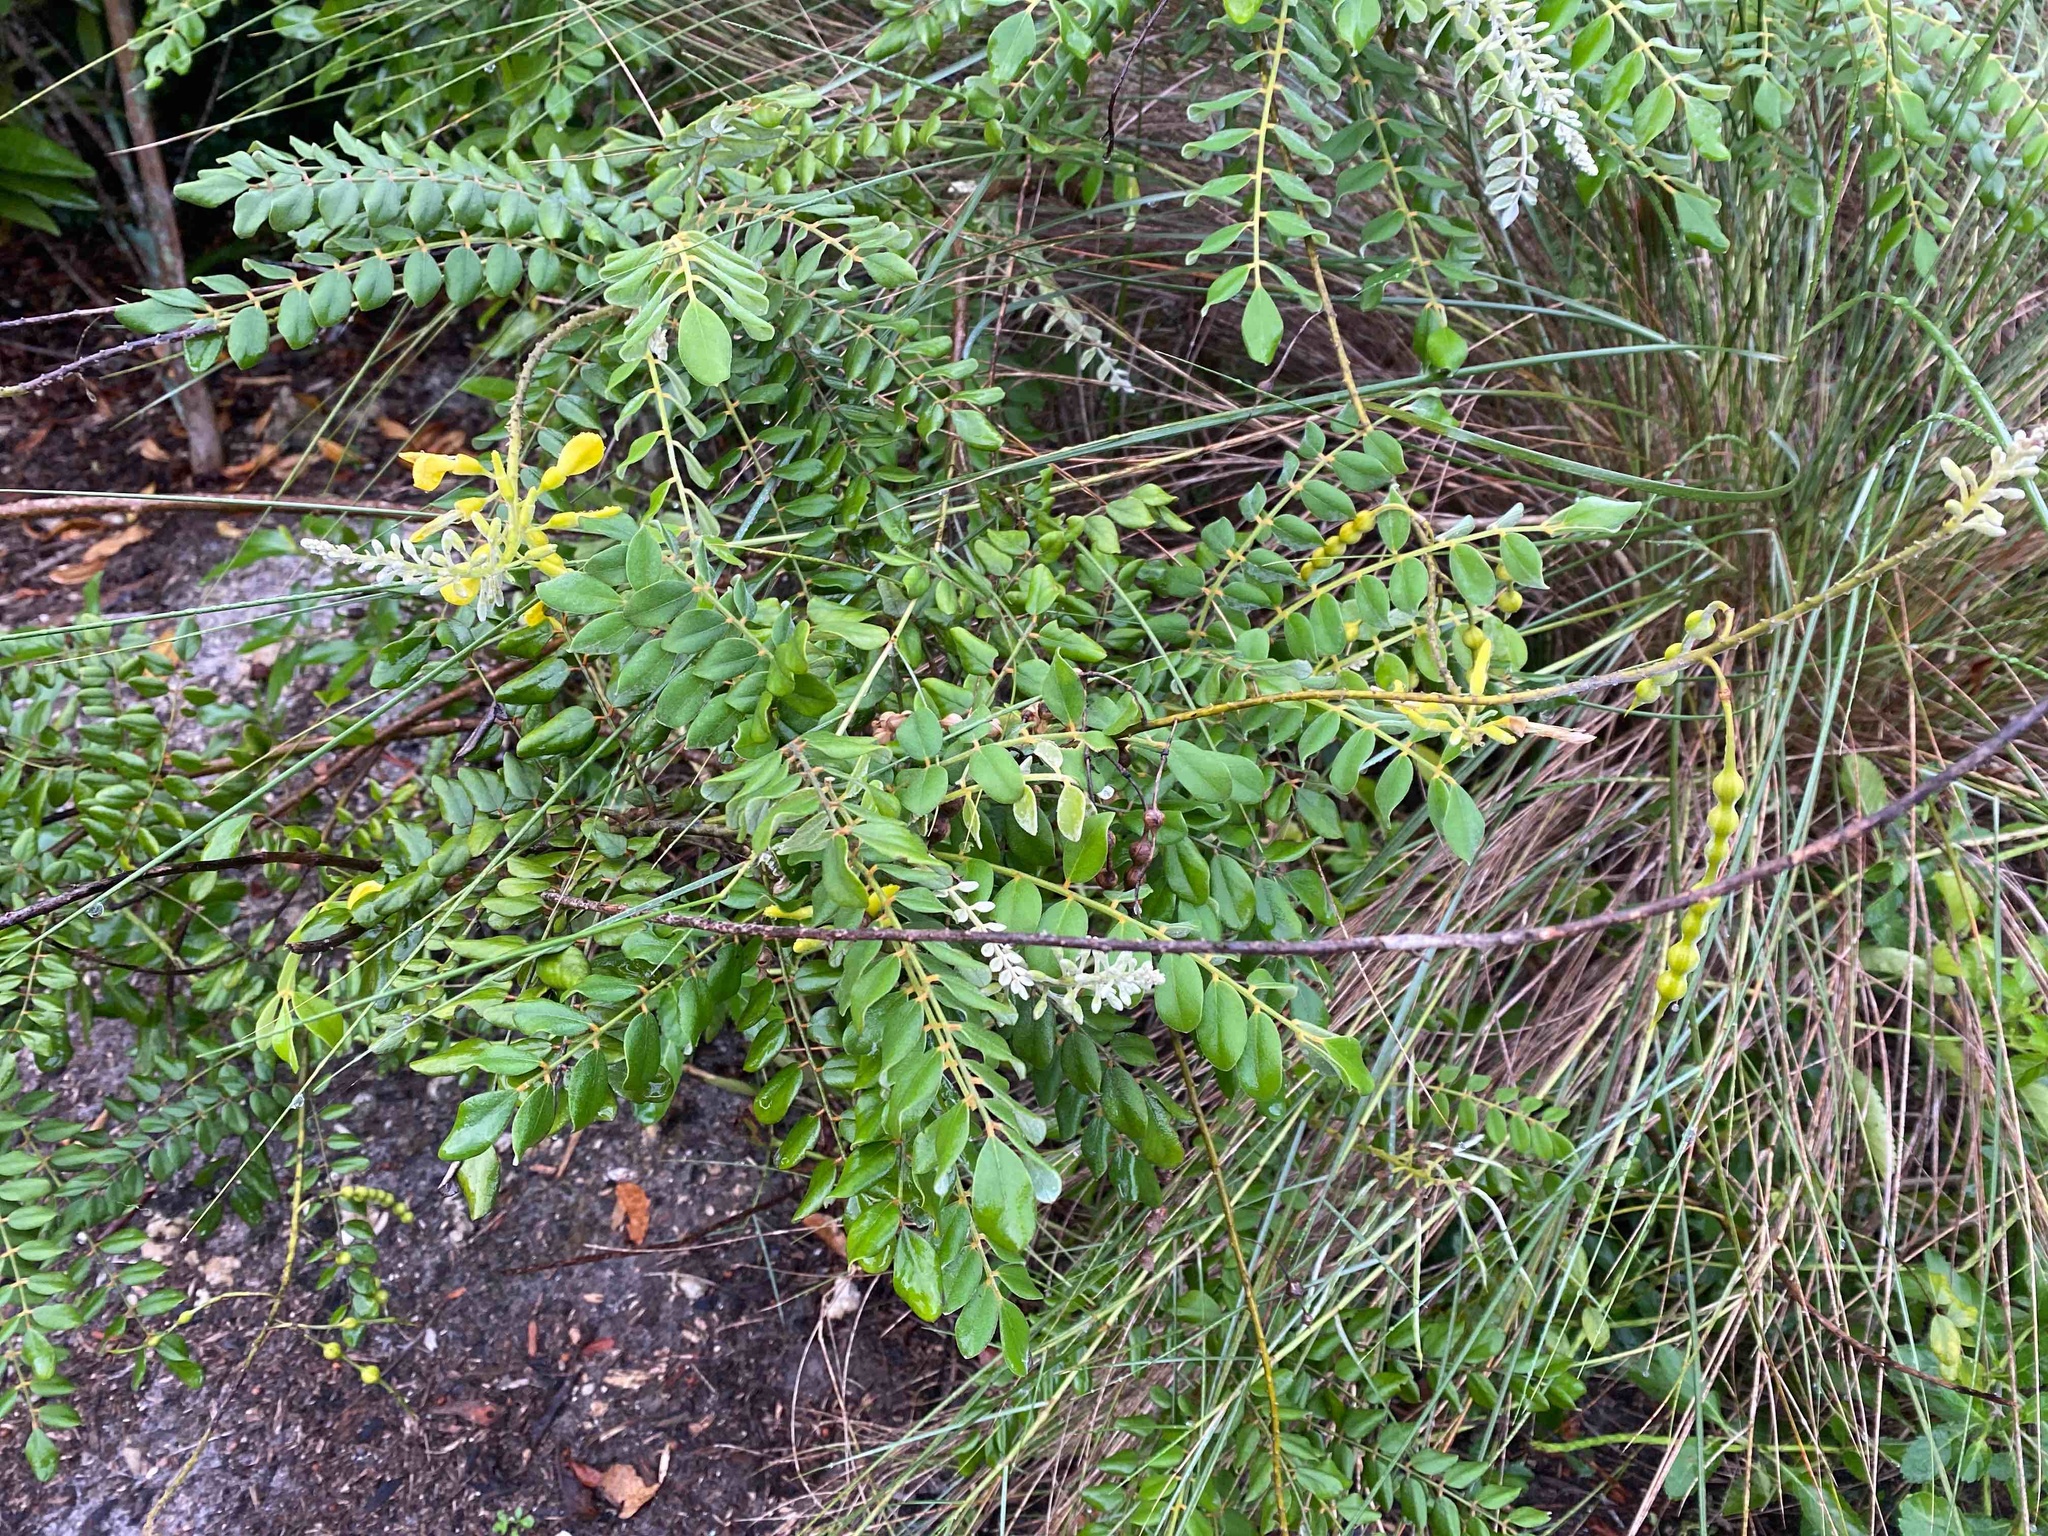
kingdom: Plantae
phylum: Tracheophyta
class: Magnoliopsida
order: Fabales
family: Fabaceae
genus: Sophora
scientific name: Sophora tomentosa
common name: Yellow necklacepod
